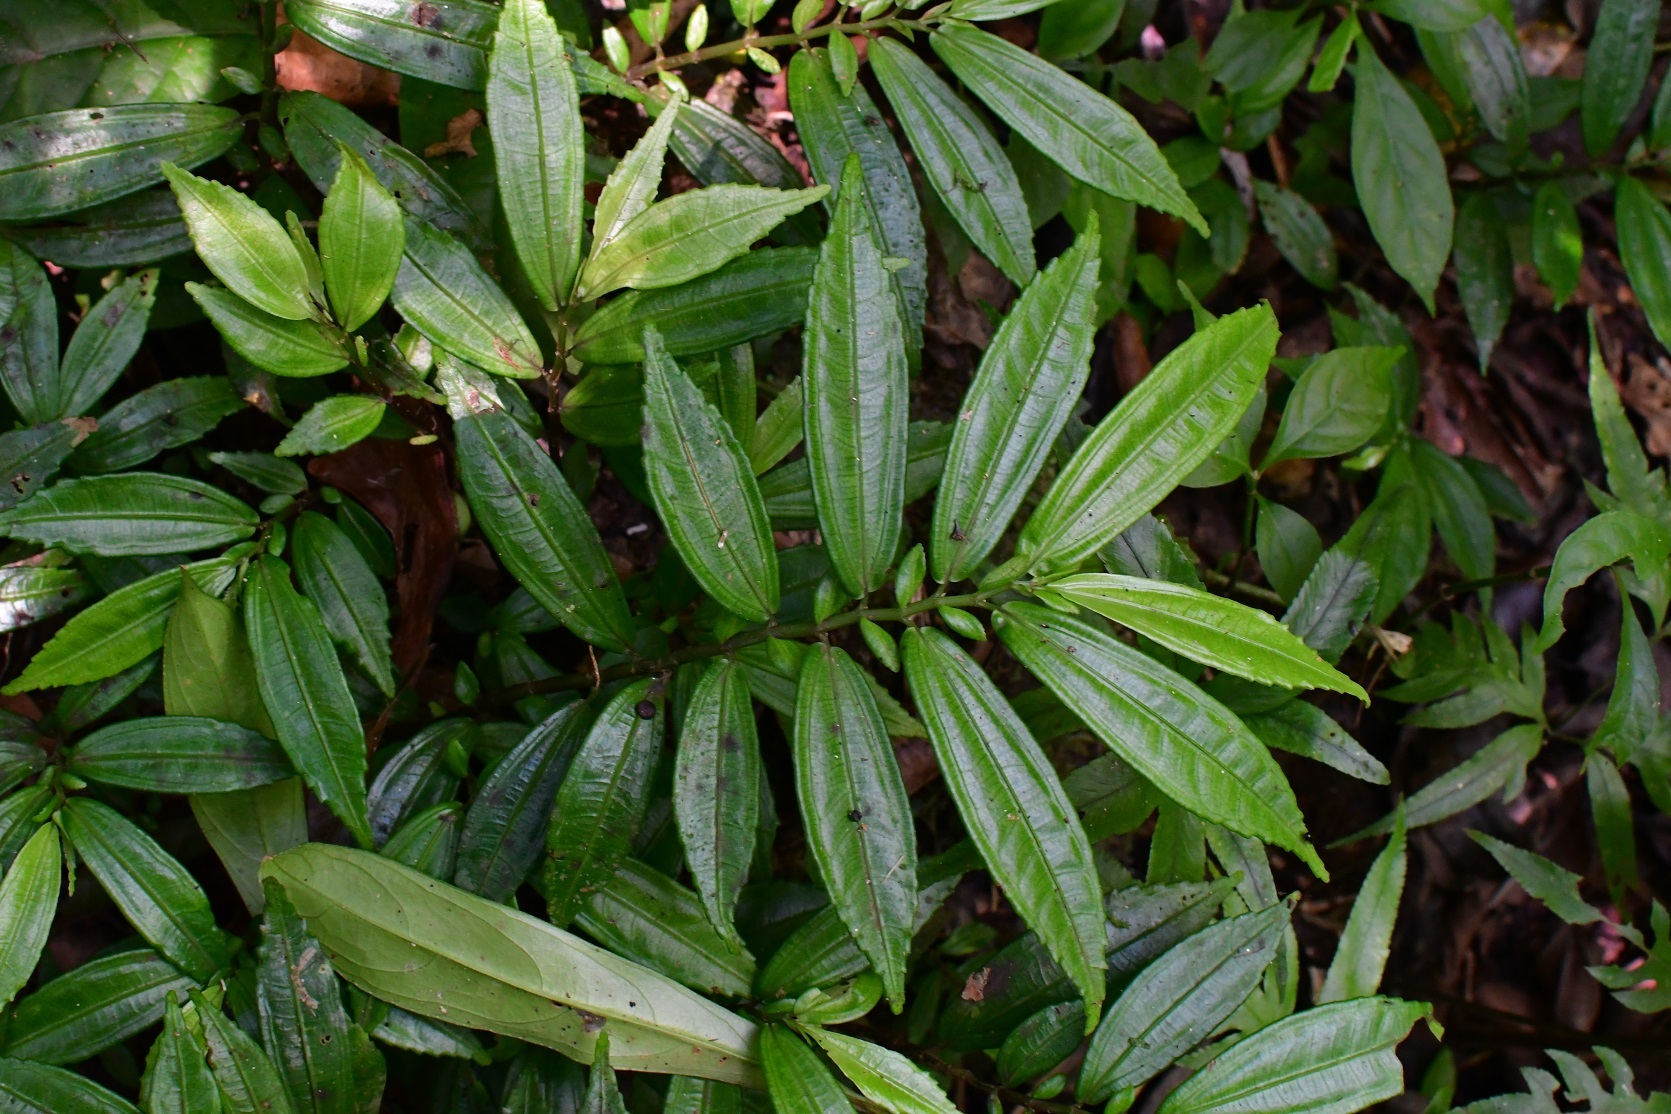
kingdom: Plantae
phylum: Tracheophyta
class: Magnoliopsida
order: Rosales
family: Urticaceae
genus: Pilea
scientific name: Pilea daguensis
